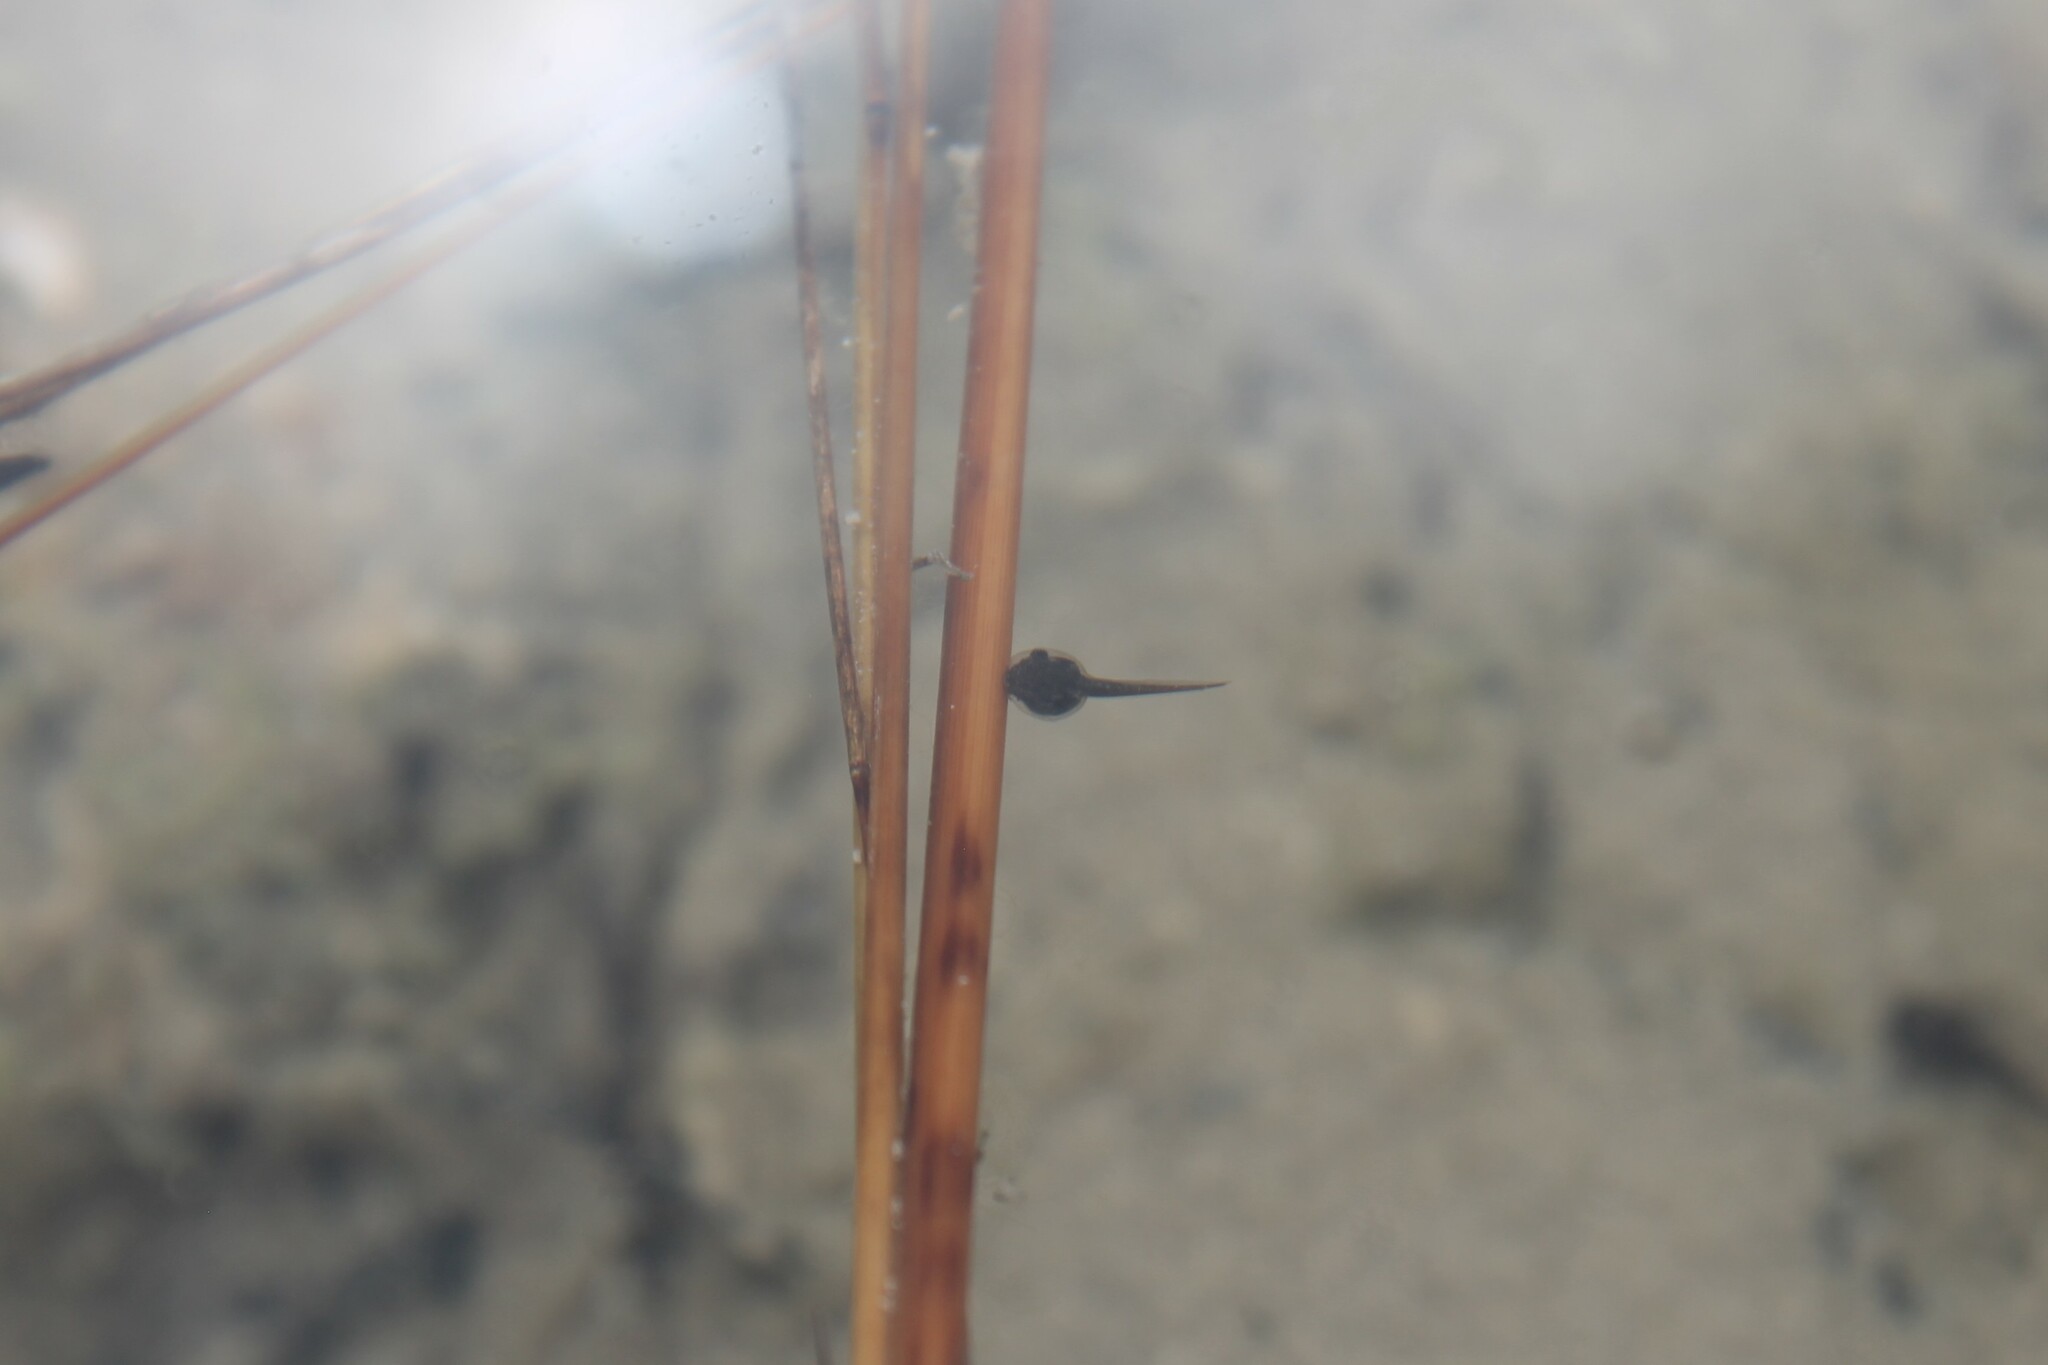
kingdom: Animalia
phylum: Chordata
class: Amphibia
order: Anura
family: Hylidae
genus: Pseudacris
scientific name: Pseudacris feriarum
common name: Upland chorus frog
